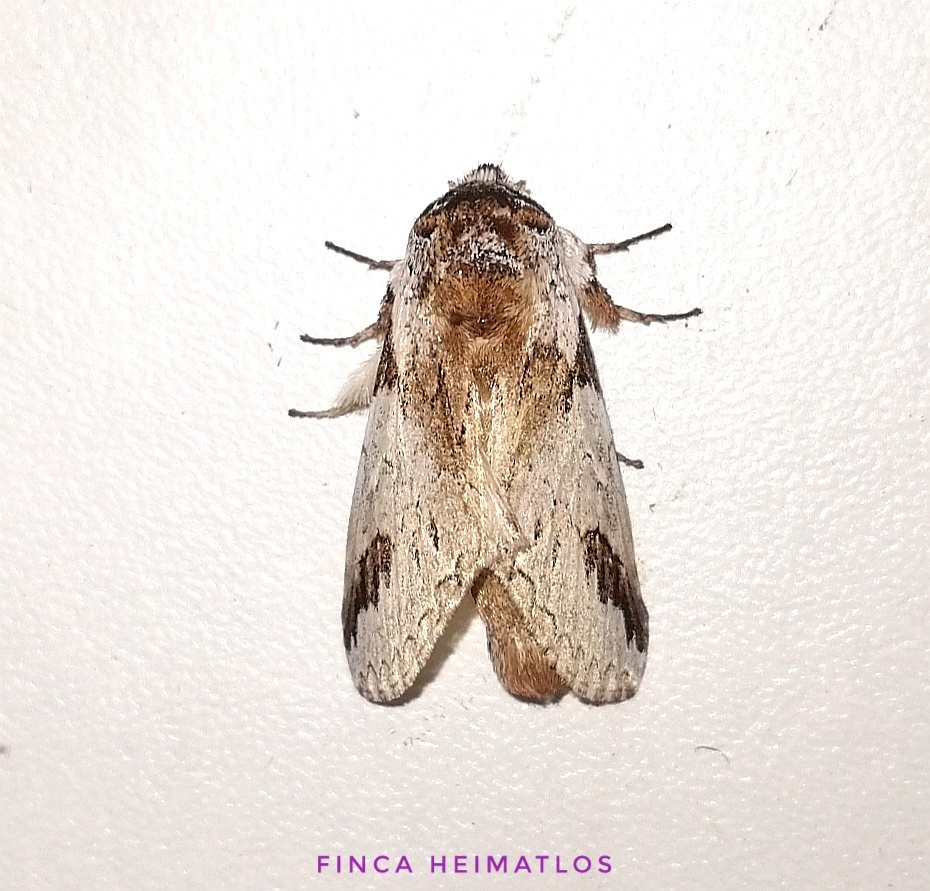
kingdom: Animalia
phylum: Arthropoda
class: Insecta
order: Lepidoptera
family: Notodontidae
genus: Sericochroa
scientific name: Sericochroa lioneli
